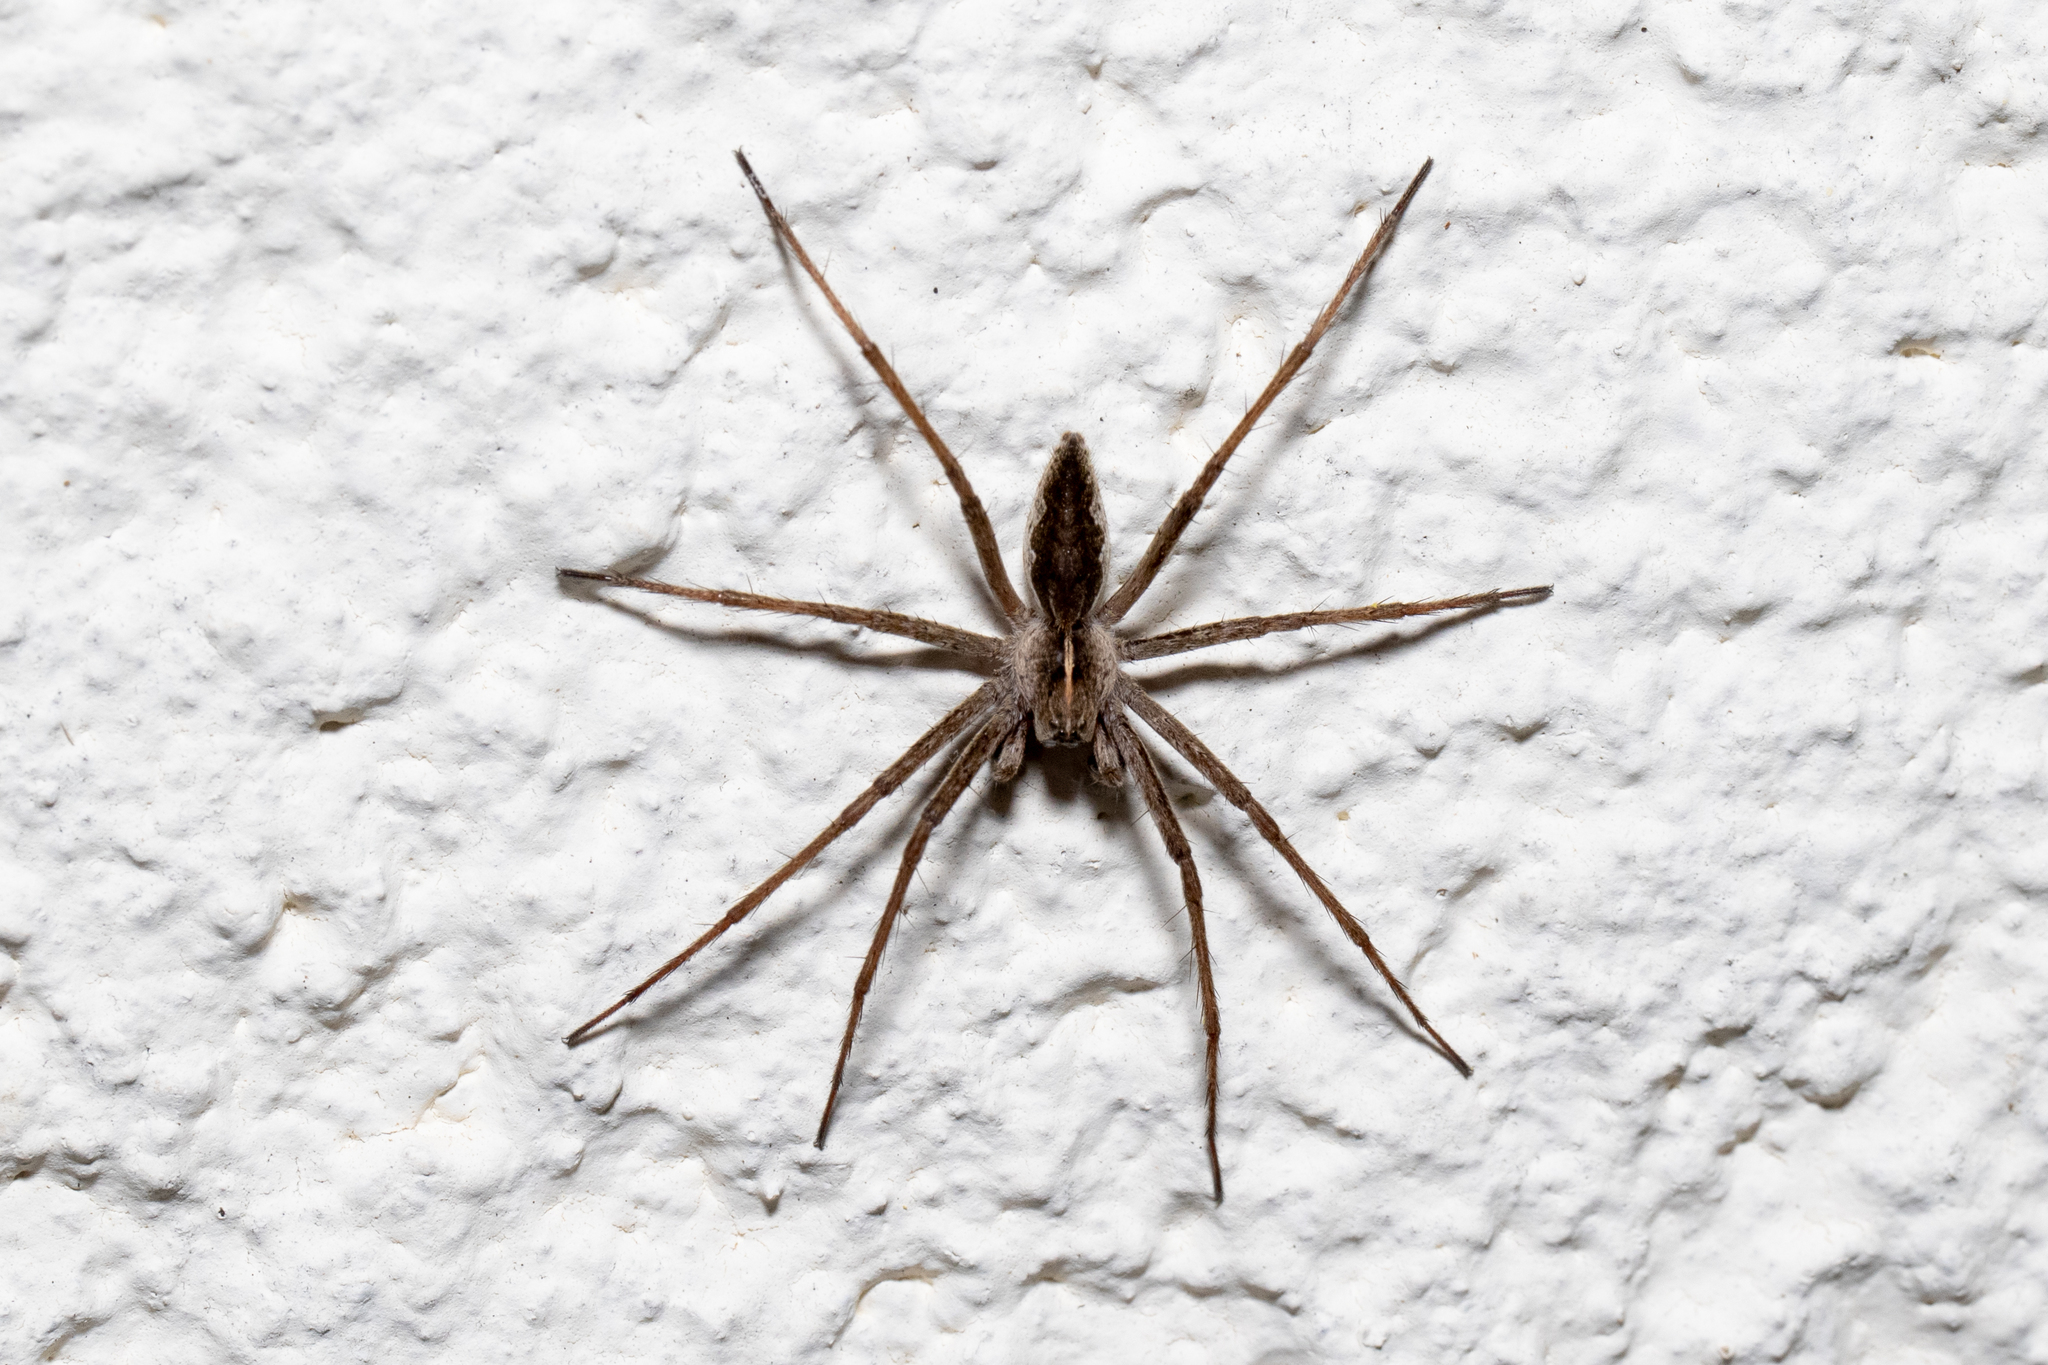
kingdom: Animalia
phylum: Arthropoda
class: Arachnida
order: Araneae
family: Pisauridae
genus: Pisaura
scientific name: Pisaura mirabilis
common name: Tent spider
